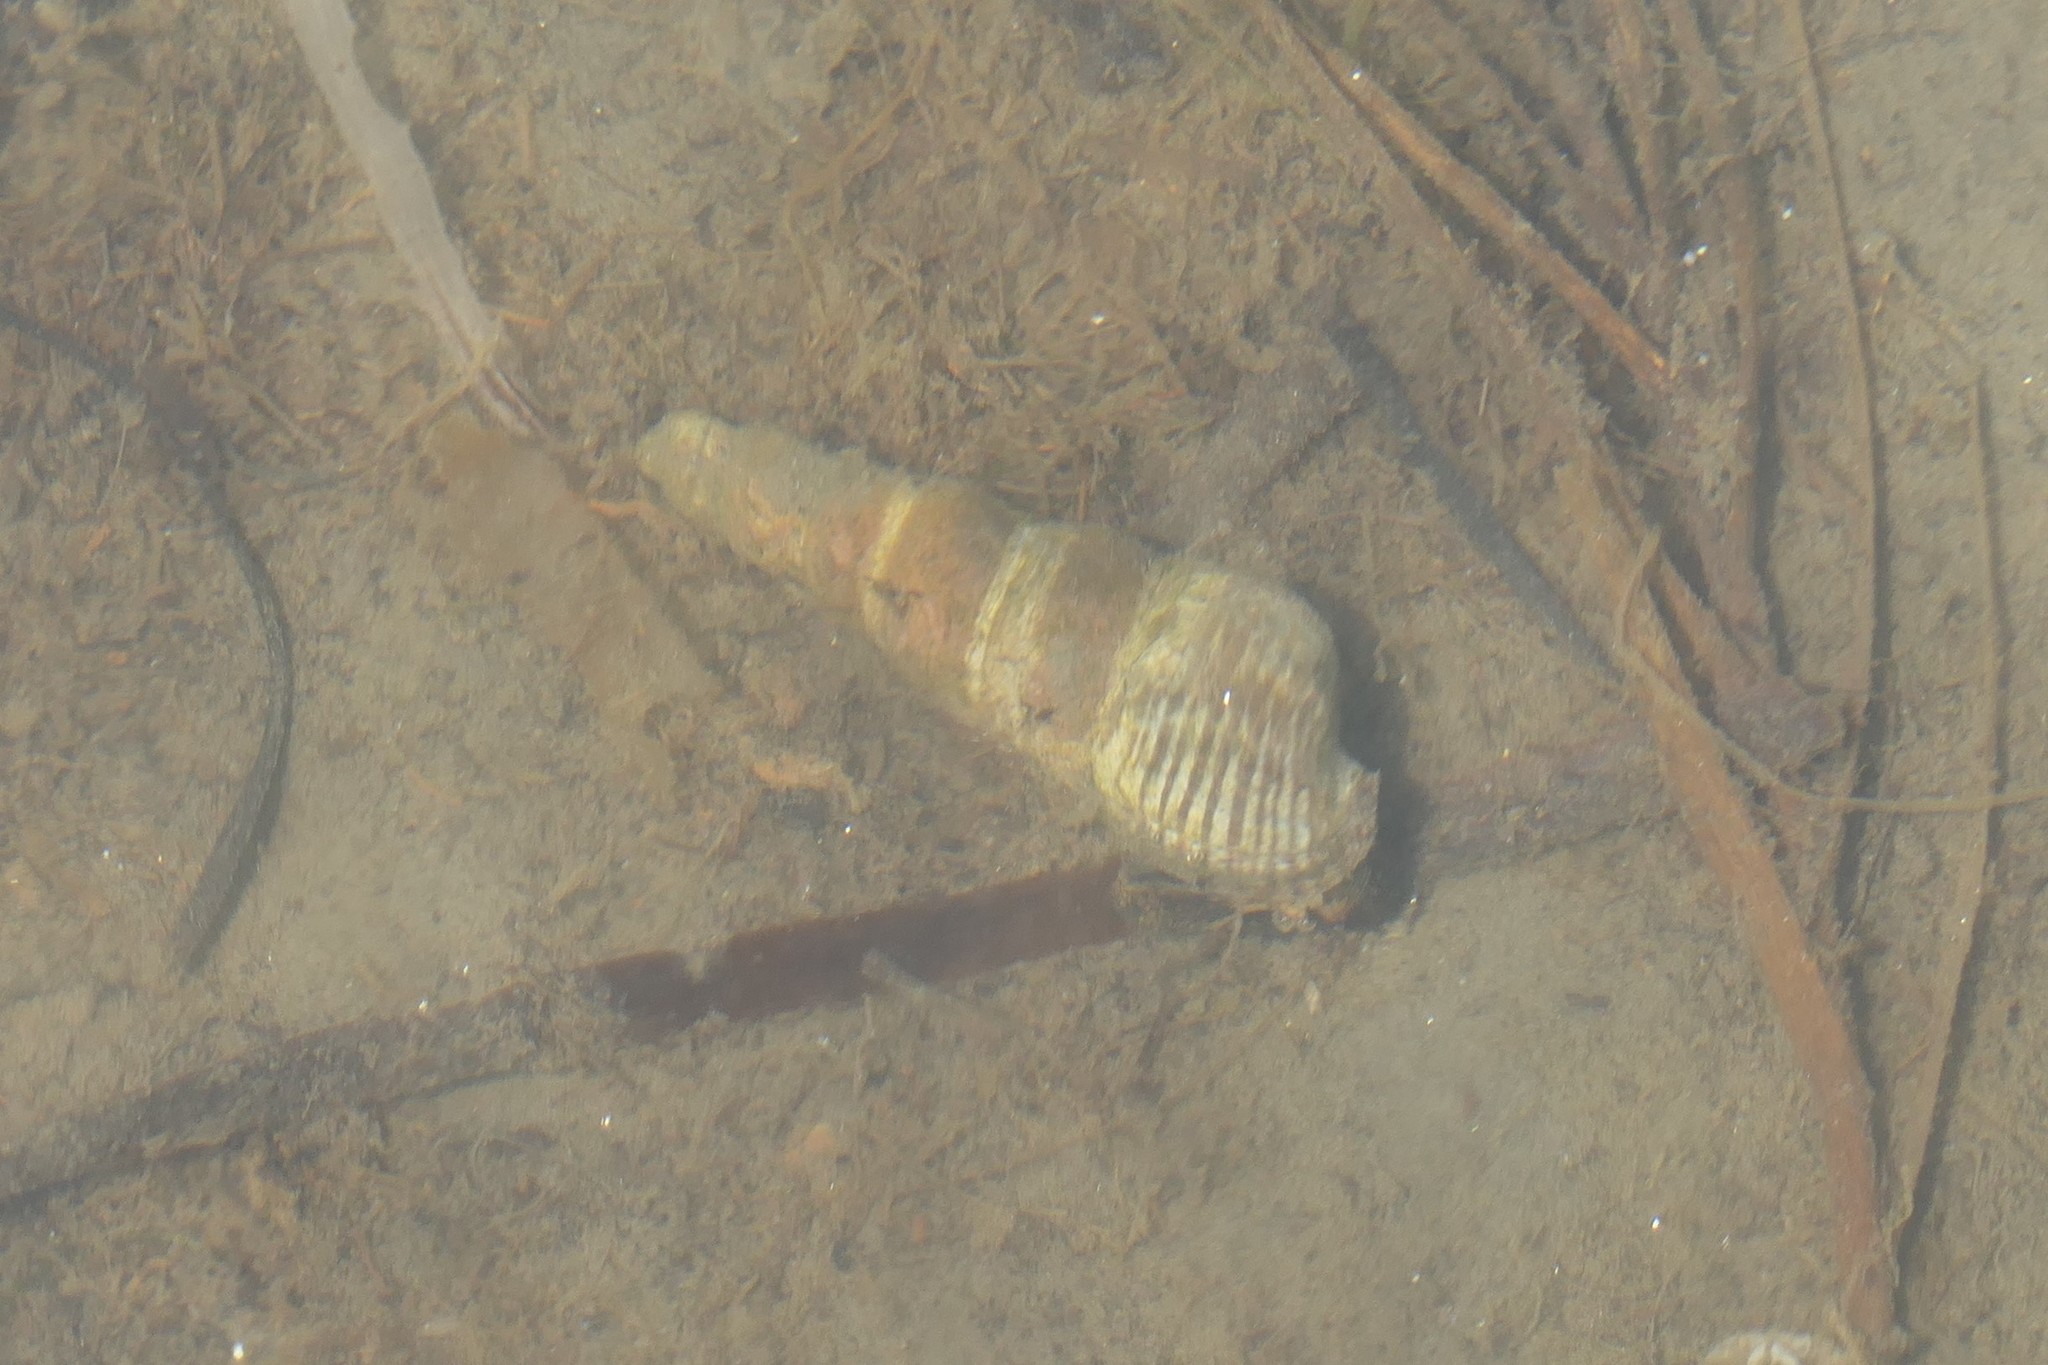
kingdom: Animalia
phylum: Mollusca
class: Gastropoda
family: Batillariidae
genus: Batillaria
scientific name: Batillaria attramentaria
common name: Japanese false cerith
